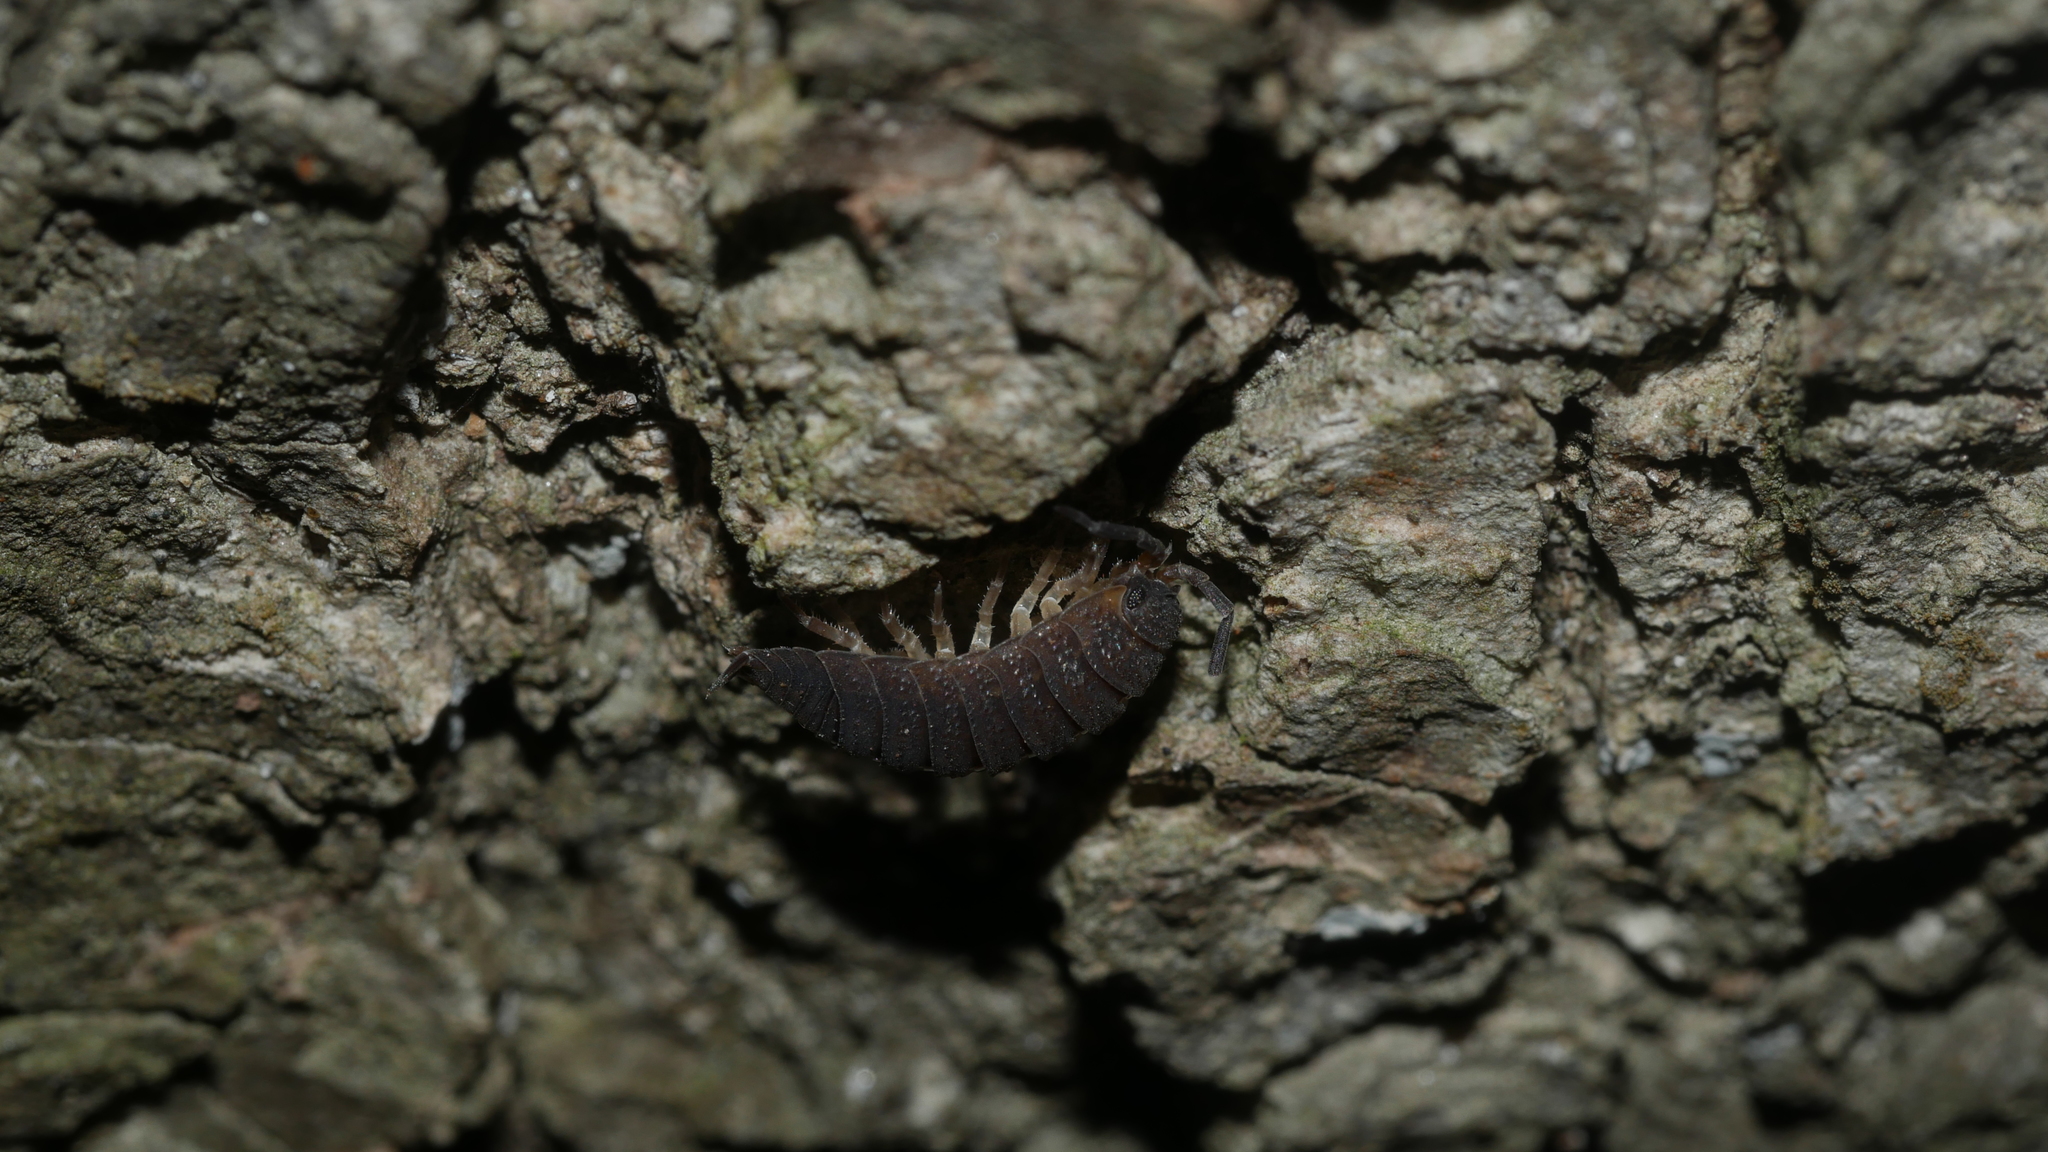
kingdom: Animalia
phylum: Arthropoda
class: Malacostraca
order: Isopoda
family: Porcellionidae
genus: Porcellio
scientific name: Porcellio scaber
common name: Common rough woodlouse
